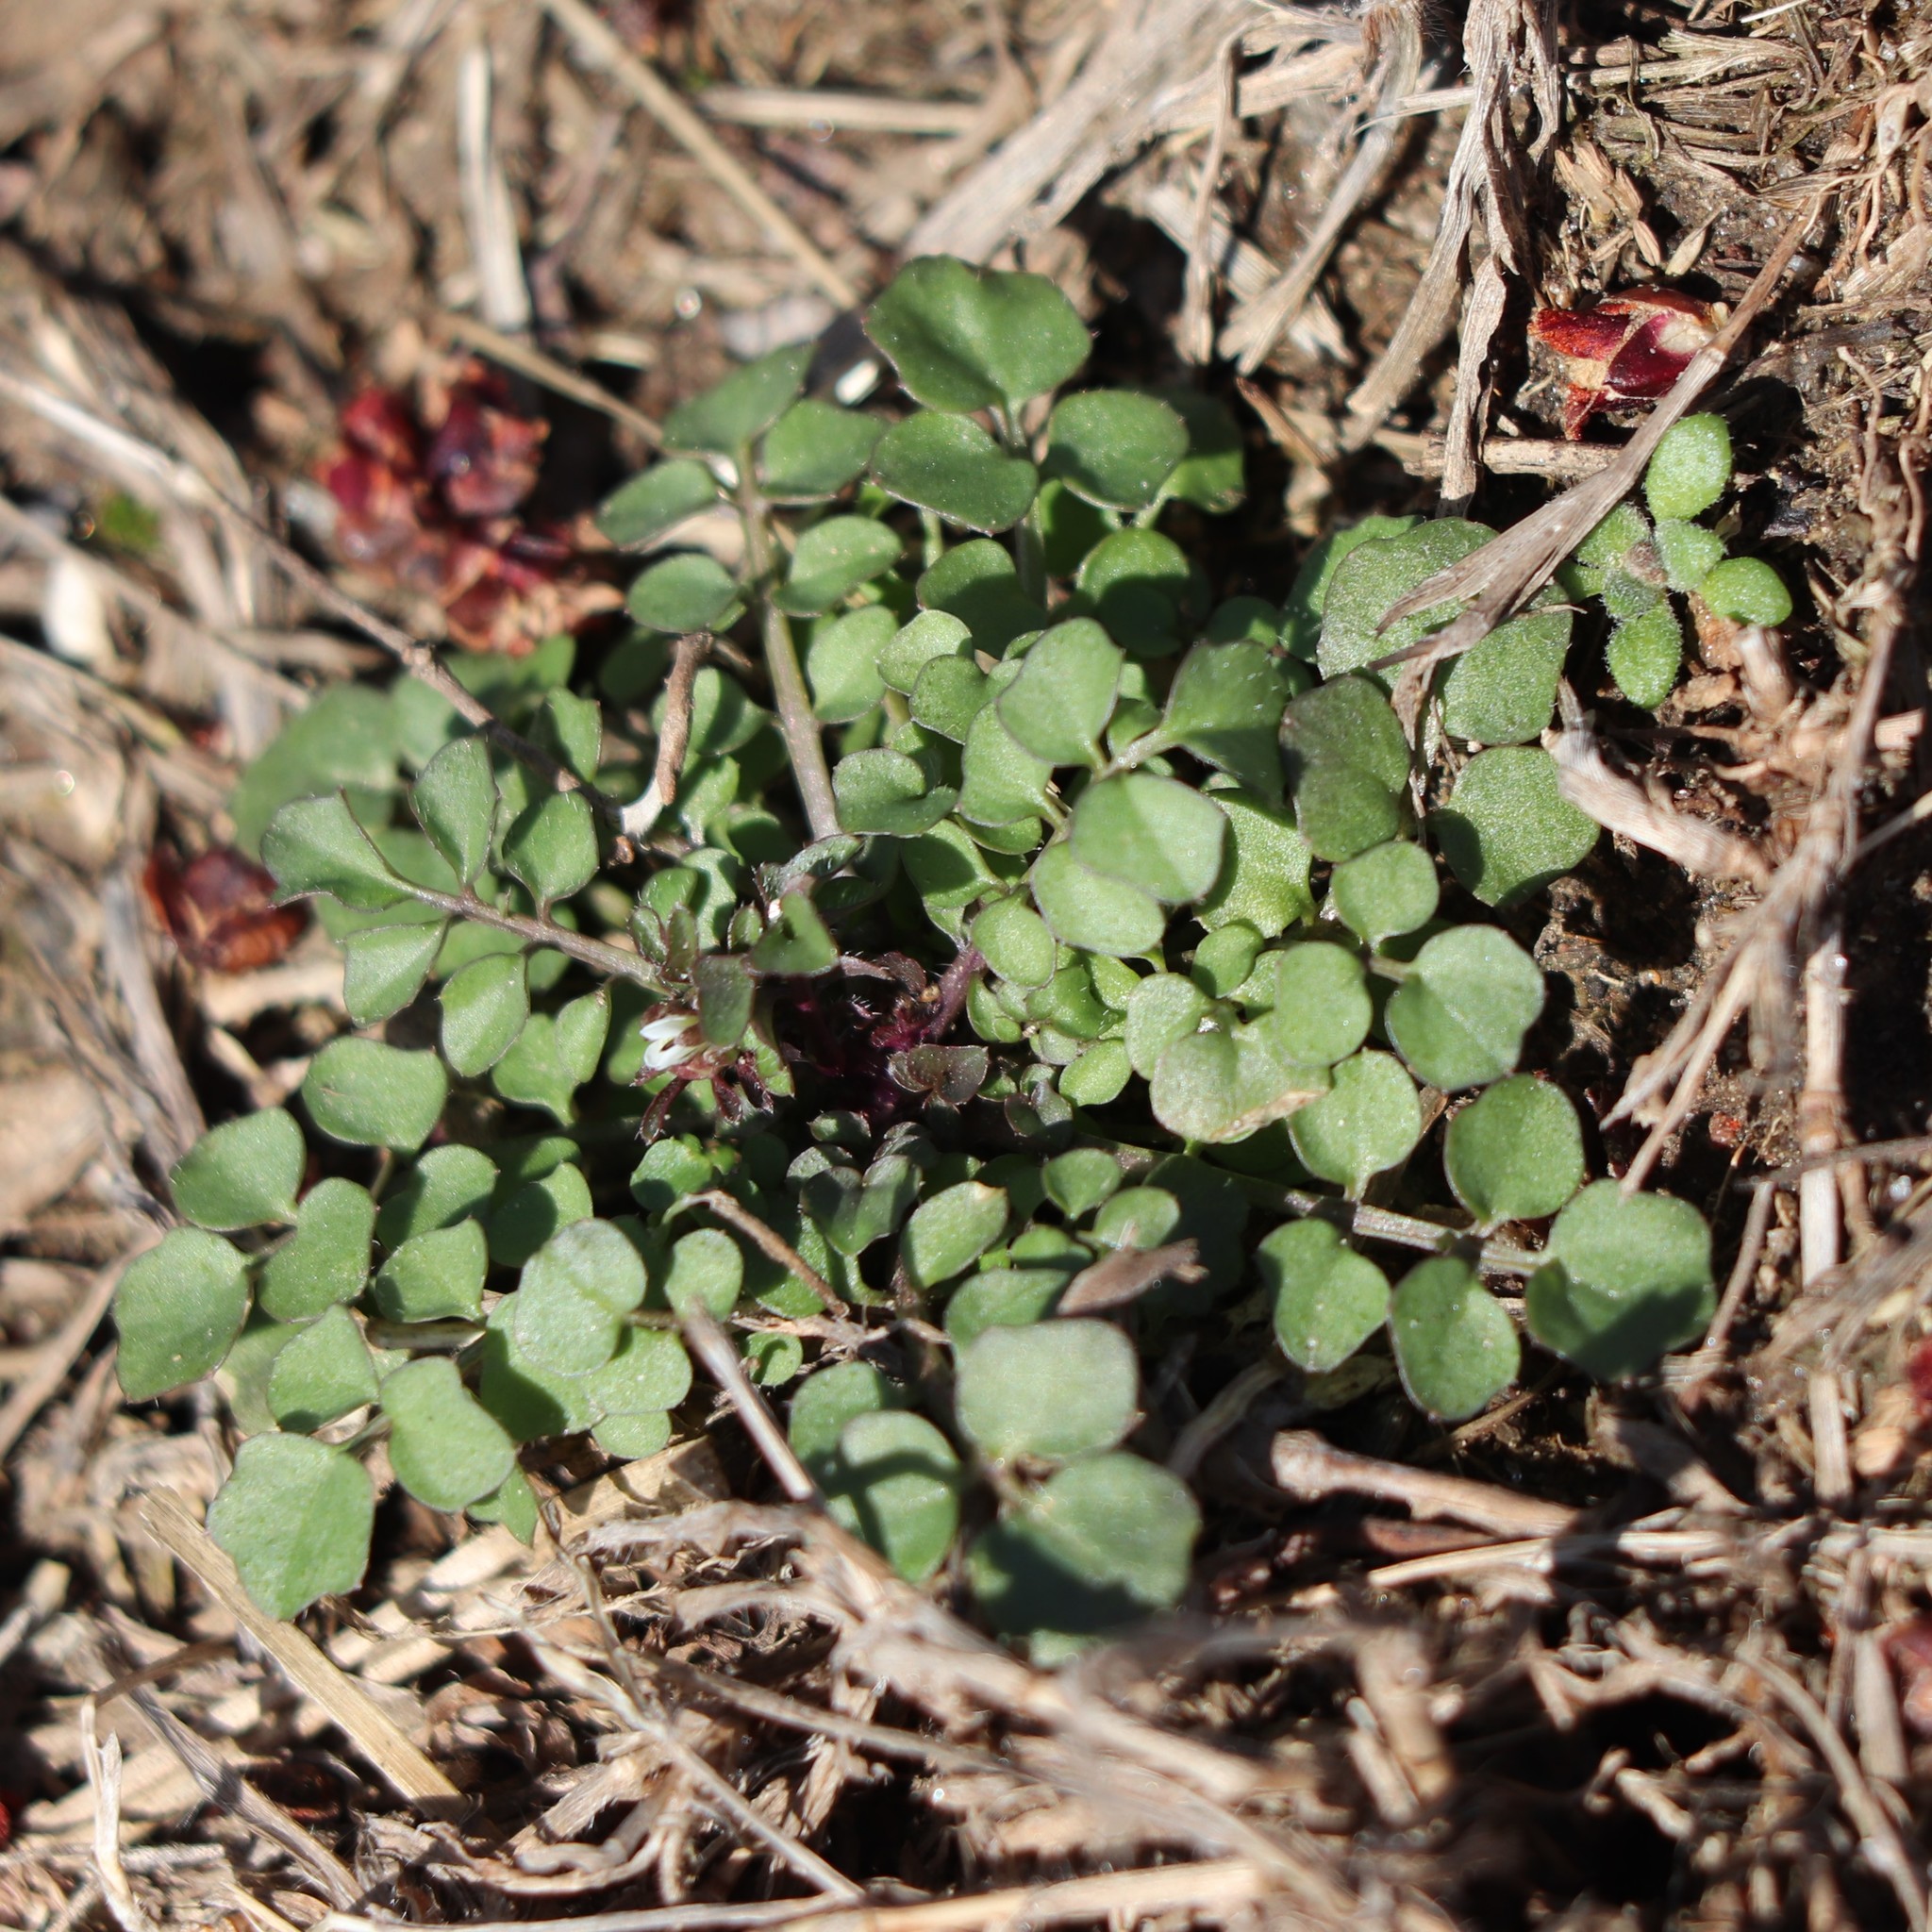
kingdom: Plantae
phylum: Tracheophyta
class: Magnoliopsida
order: Brassicales
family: Brassicaceae
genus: Cardamine
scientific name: Cardamine hirsuta
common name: Hairy bittercress
